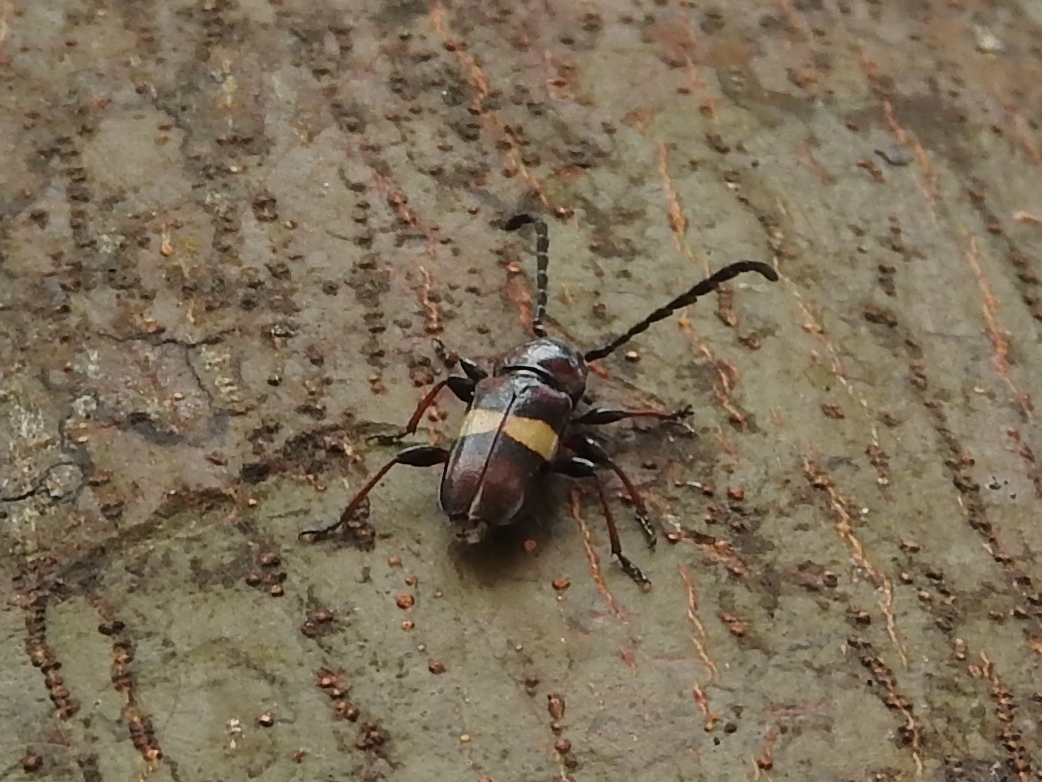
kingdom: Animalia
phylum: Arthropoda
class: Insecta
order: Coleoptera
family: Cerambycidae
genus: Lissonotus
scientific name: Lissonotus flavocinctus
